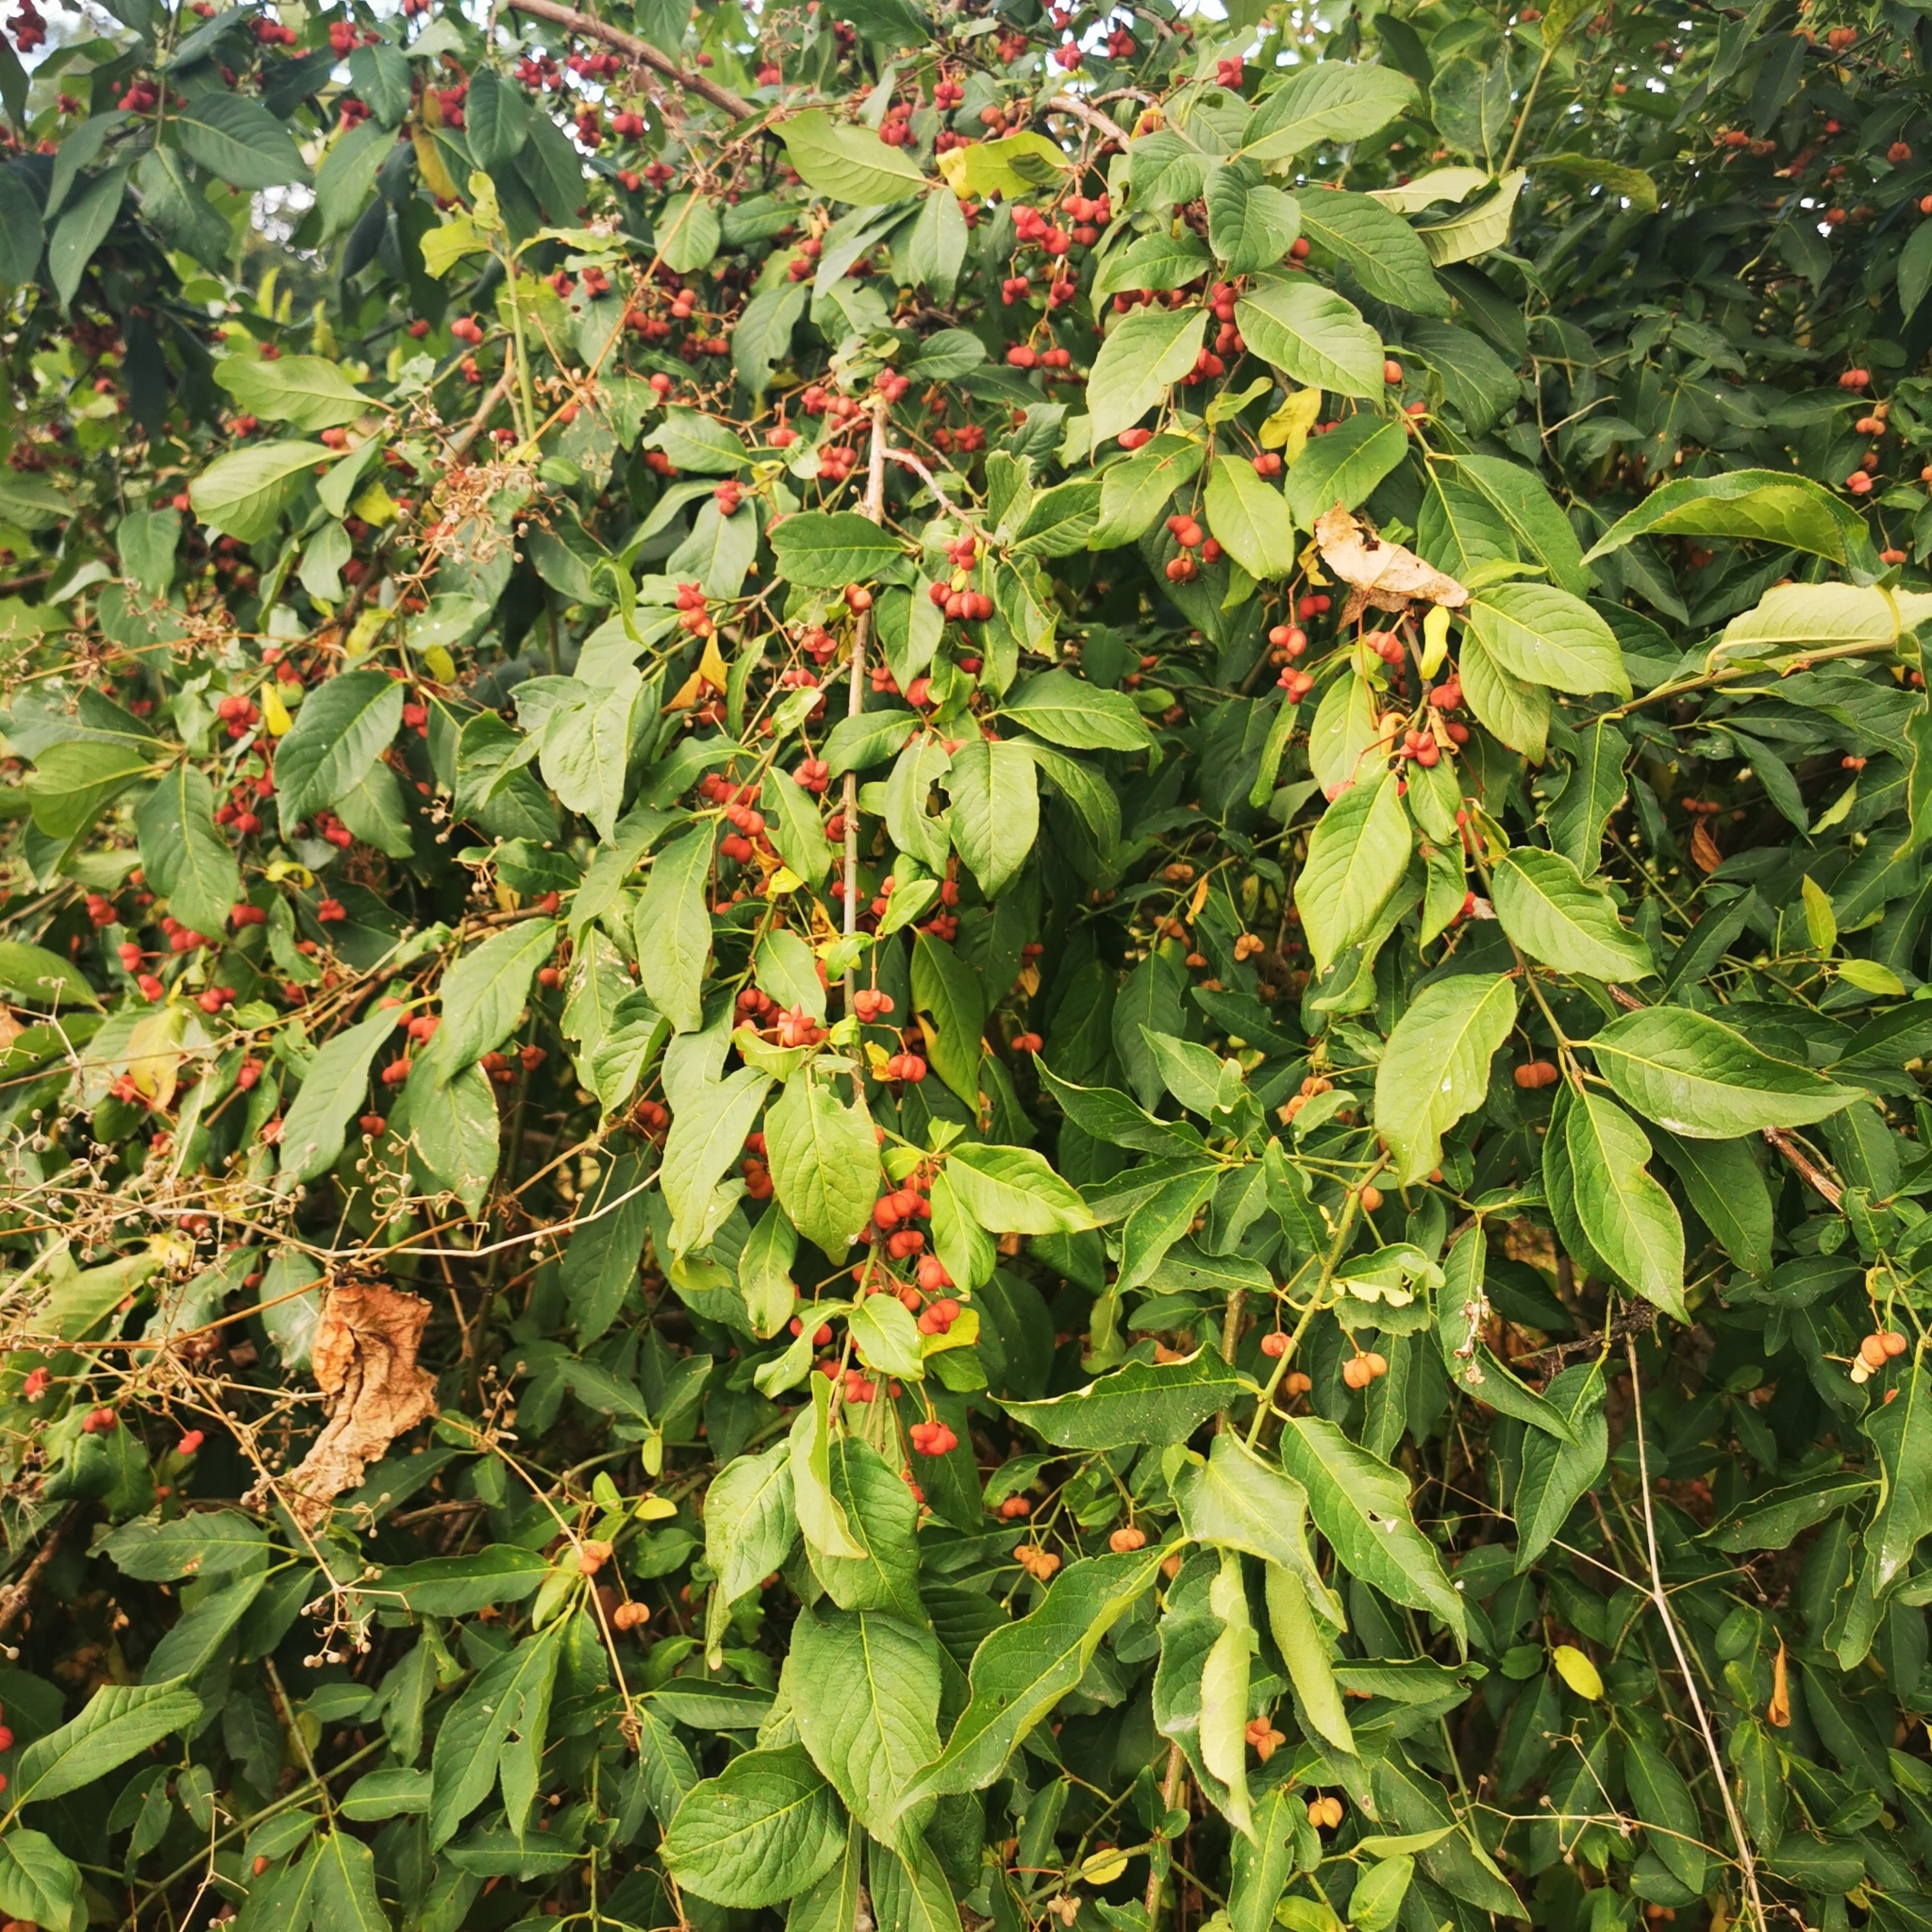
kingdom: Plantae
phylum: Tracheophyta
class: Magnoliopsida
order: Celastrales
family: Celastraceae
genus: Euonymus
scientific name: Euonymus europaeus
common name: Spindle
